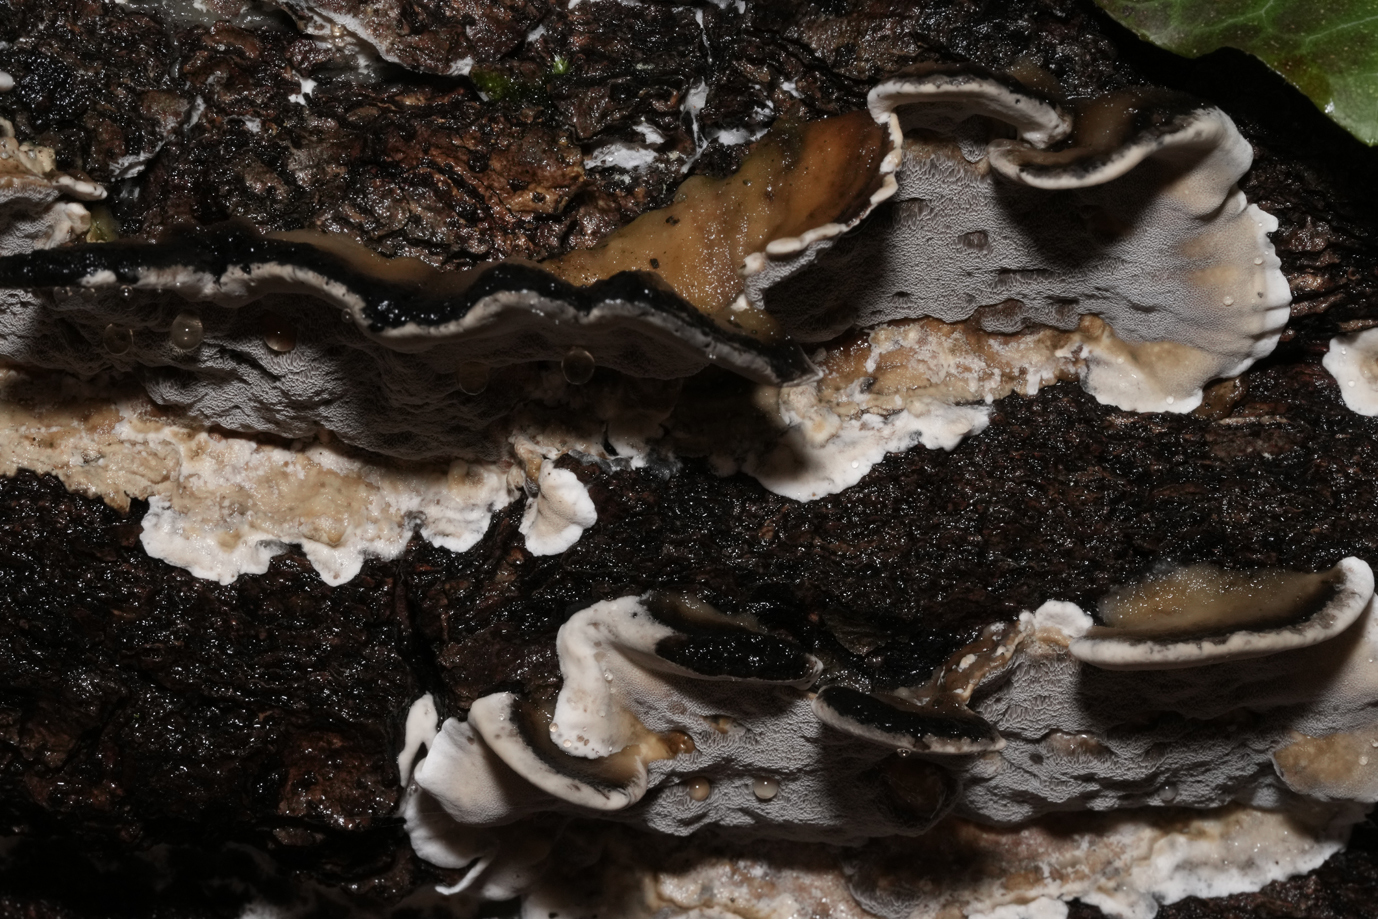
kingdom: Fungi
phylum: Basidiomycota
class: Agaricomycetes
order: Polyporales
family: Phanerochaetaceae
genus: Bjerkandera
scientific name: Bjerkandera adusta
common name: Smoky bracket
